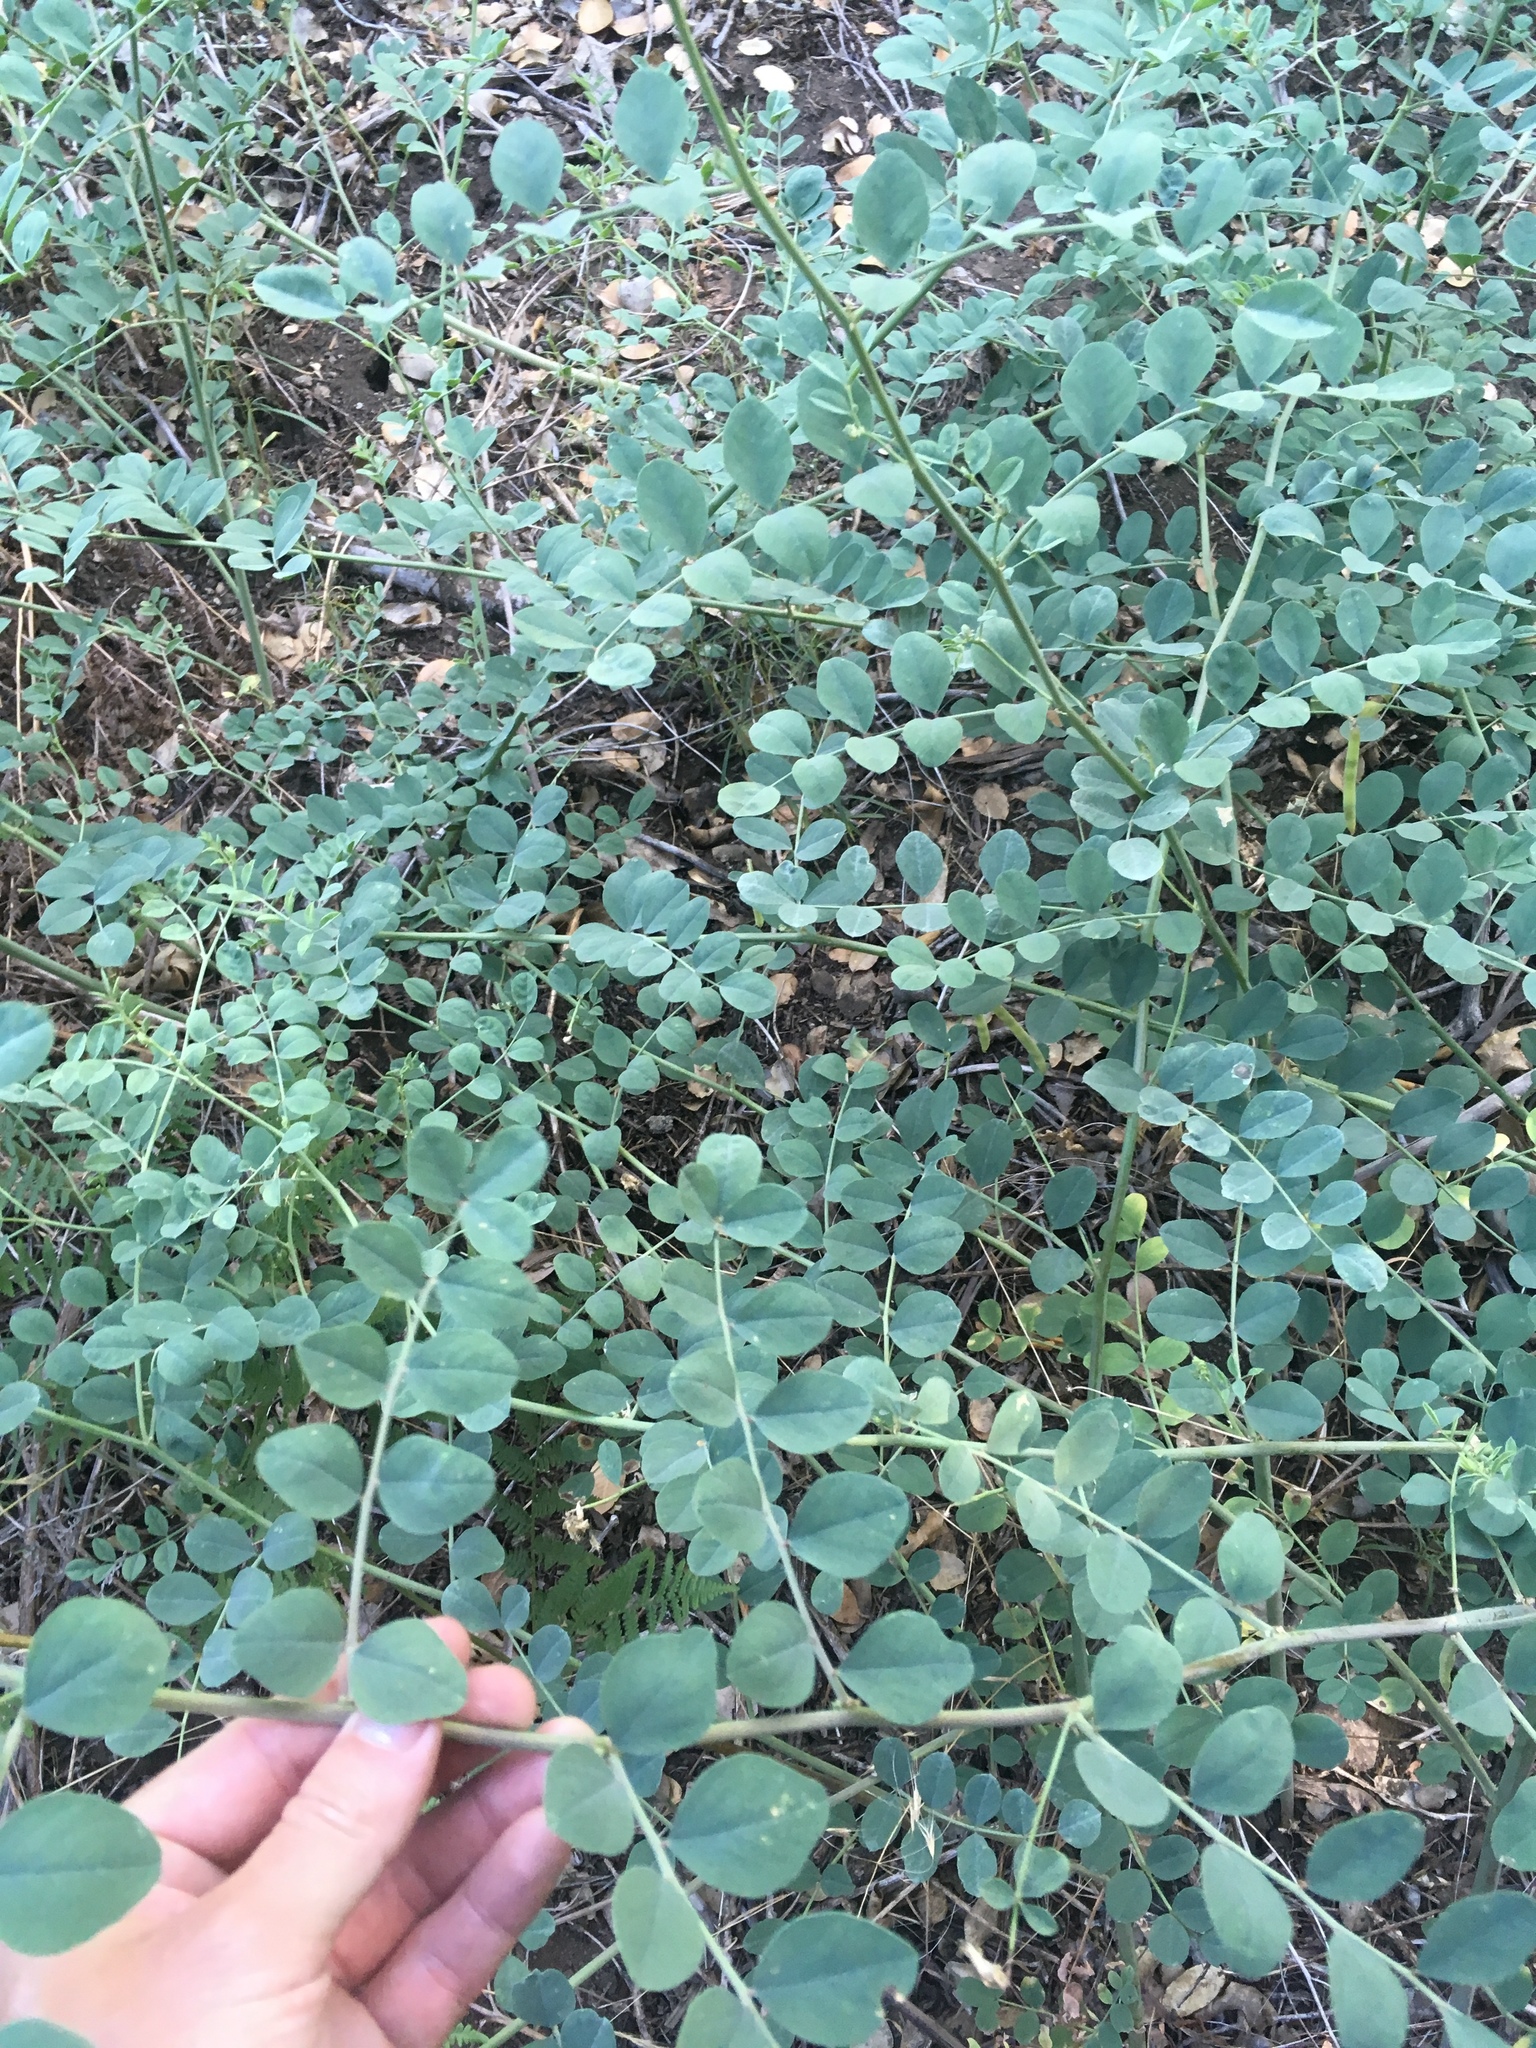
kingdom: Plantae
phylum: Tracheophyta
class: Magnoliopsida
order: Fabales
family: Fabaceae
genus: Hosackia
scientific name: Hosackia crassifolia
